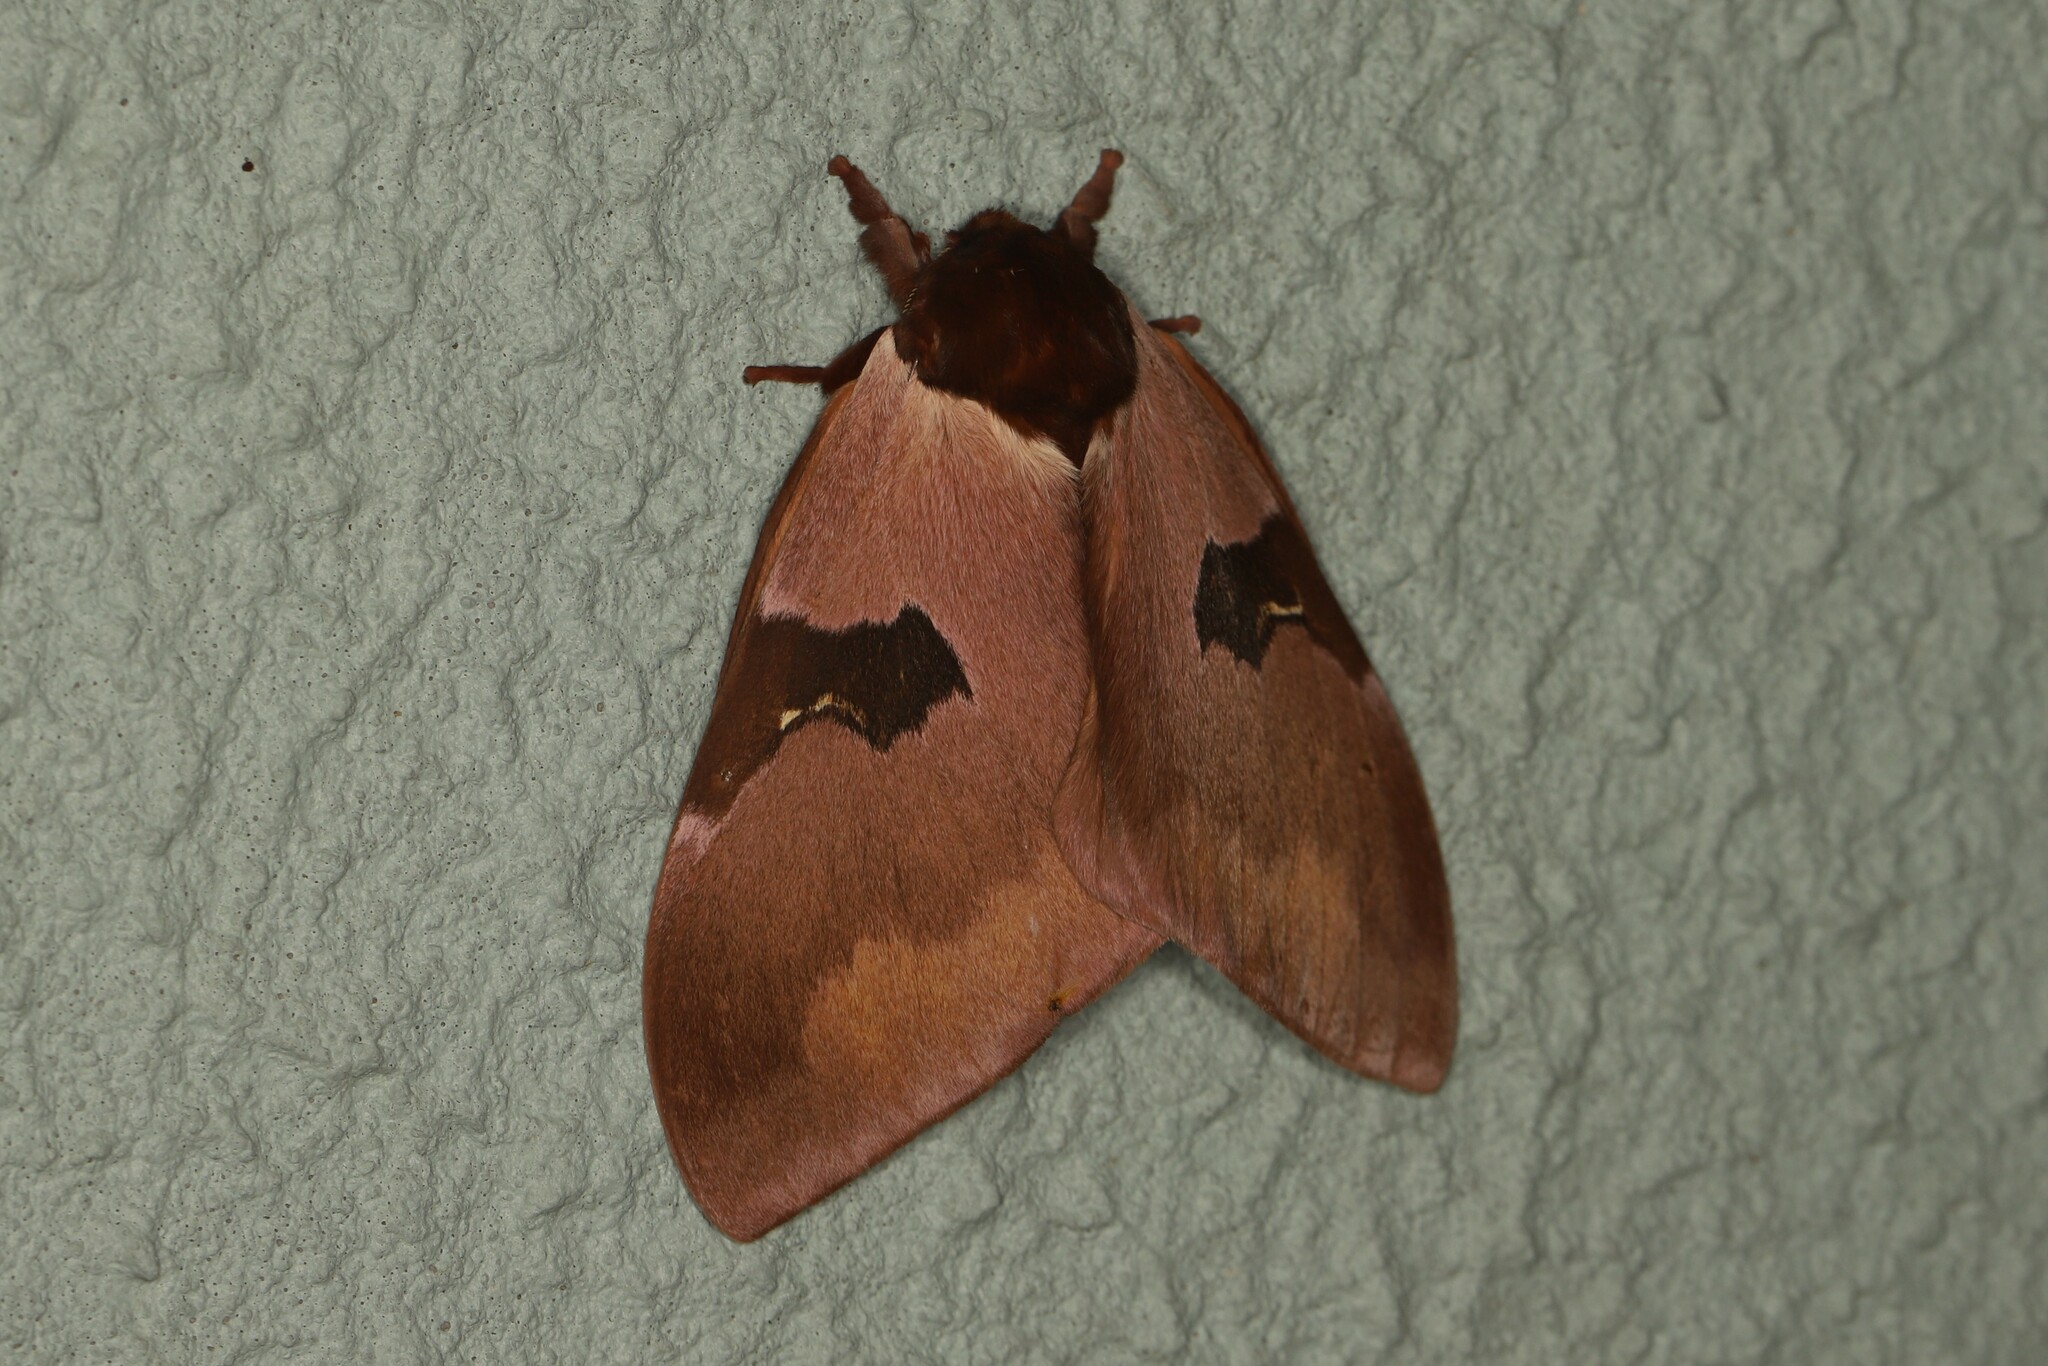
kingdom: Animalia
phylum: Arthropoda
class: Insecta
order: Lepidoptera
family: Saturniidae
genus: Dirphia
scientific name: Dirphia fraterna
